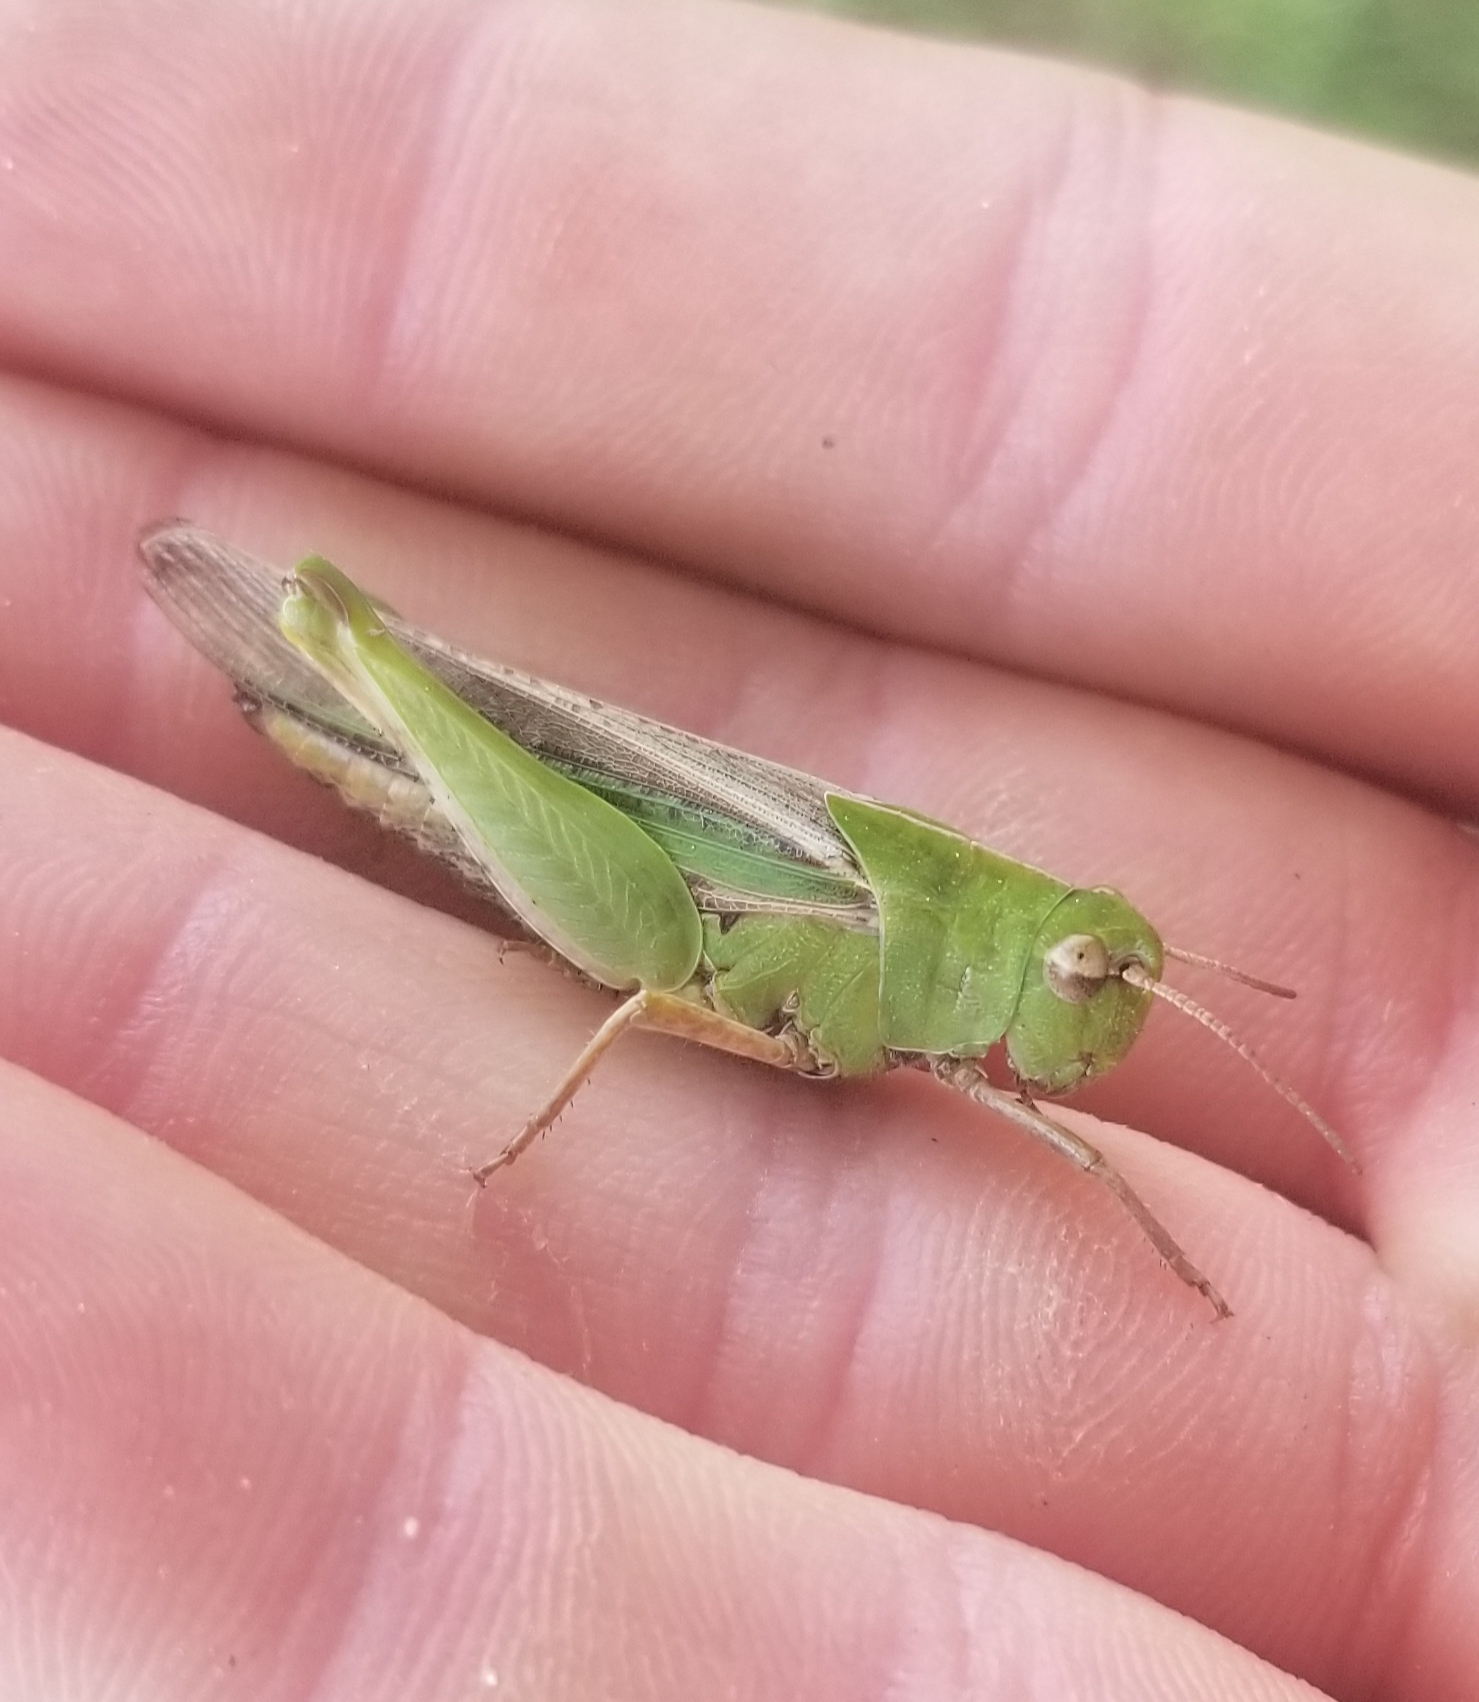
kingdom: Animalia
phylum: Arthropoda
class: Insecta
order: Orthoptera
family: Acrididae
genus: Chortophaga
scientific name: Chortophaga viridifasciata
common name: Green-striped grasshopper
